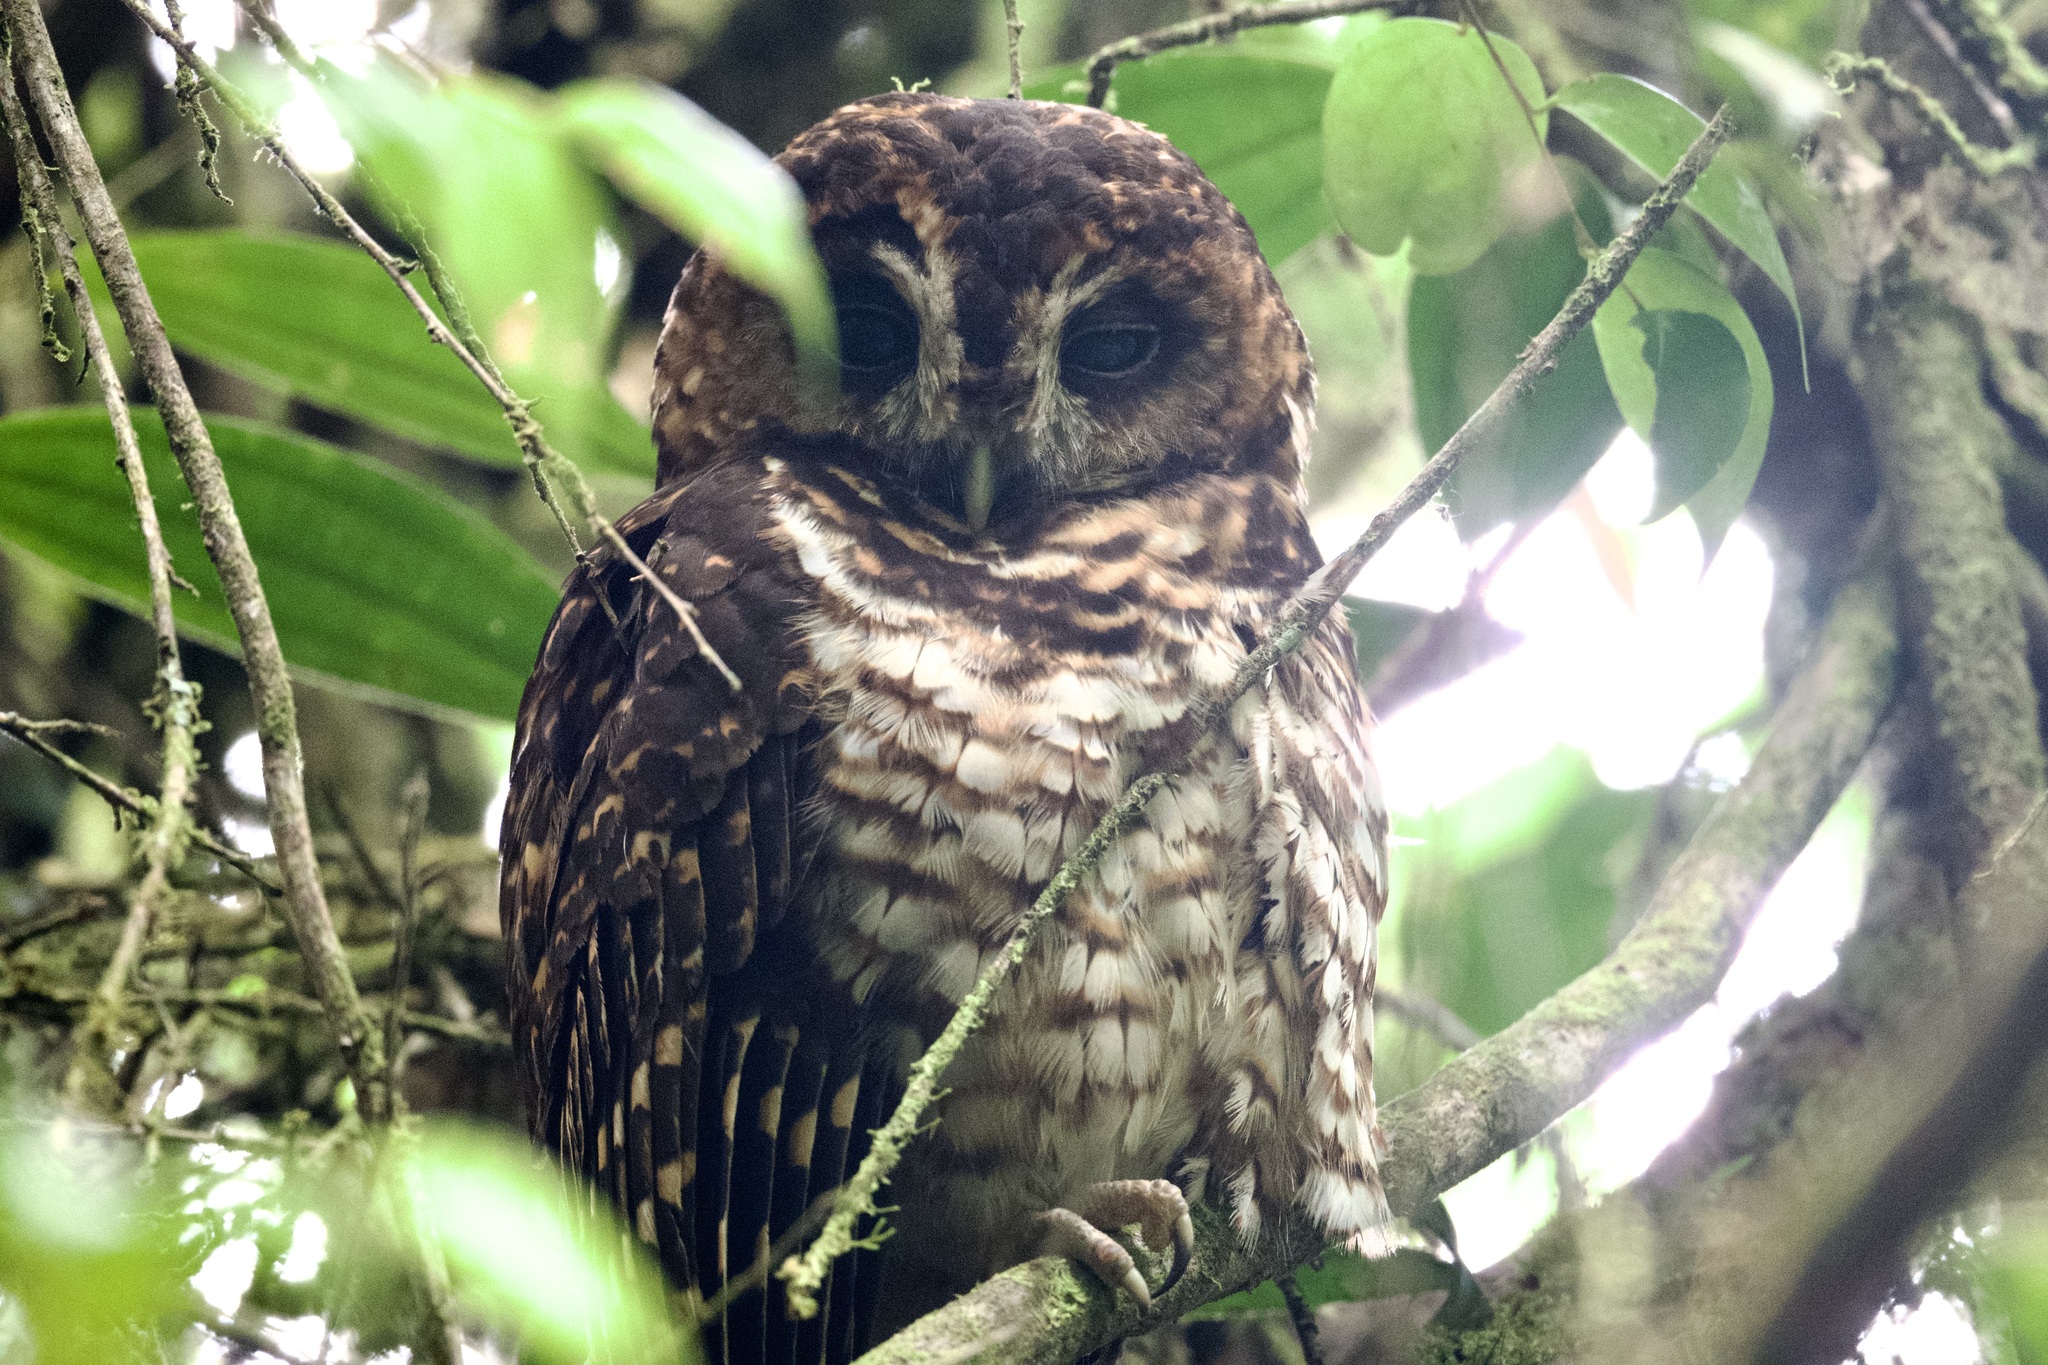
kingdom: Animalia
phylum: Chordata
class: Aves
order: Strigiformes
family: Strigidae
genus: Strix
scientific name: Strix albitarsis
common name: Rufous-banded owl
